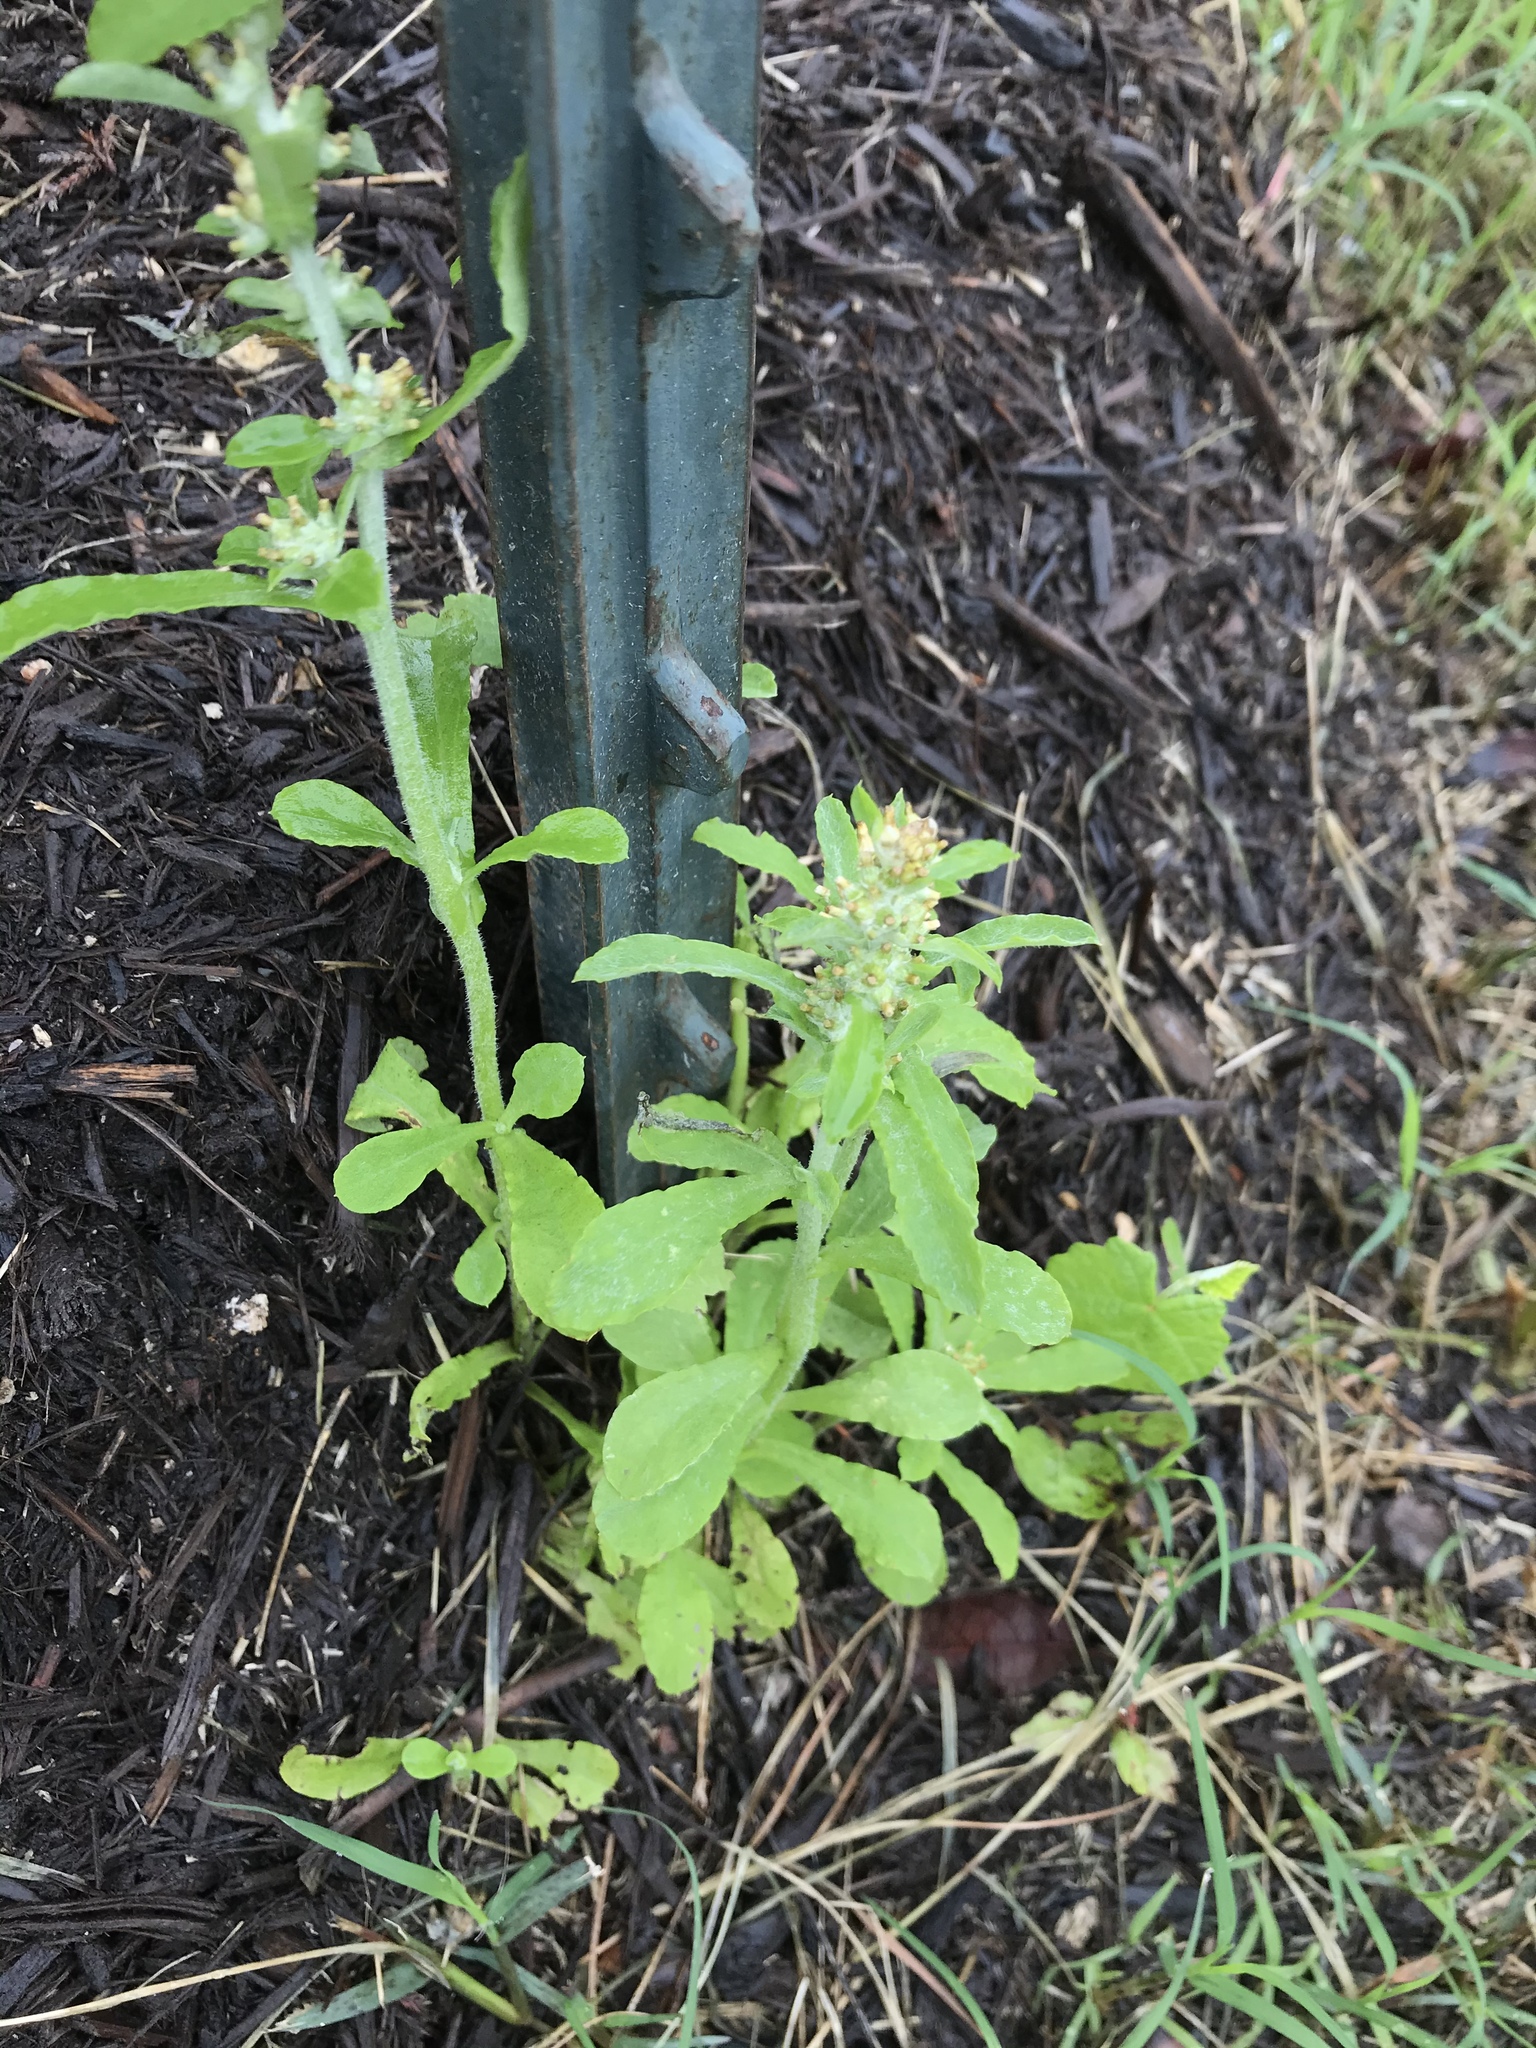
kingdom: Plantae
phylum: Tracheophyta
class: Magnoliopsida
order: Asterales
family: Asteraceae
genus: Gamochaeta
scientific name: Gamochaeta pensylvanica
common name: Pennsylvania everlasting
